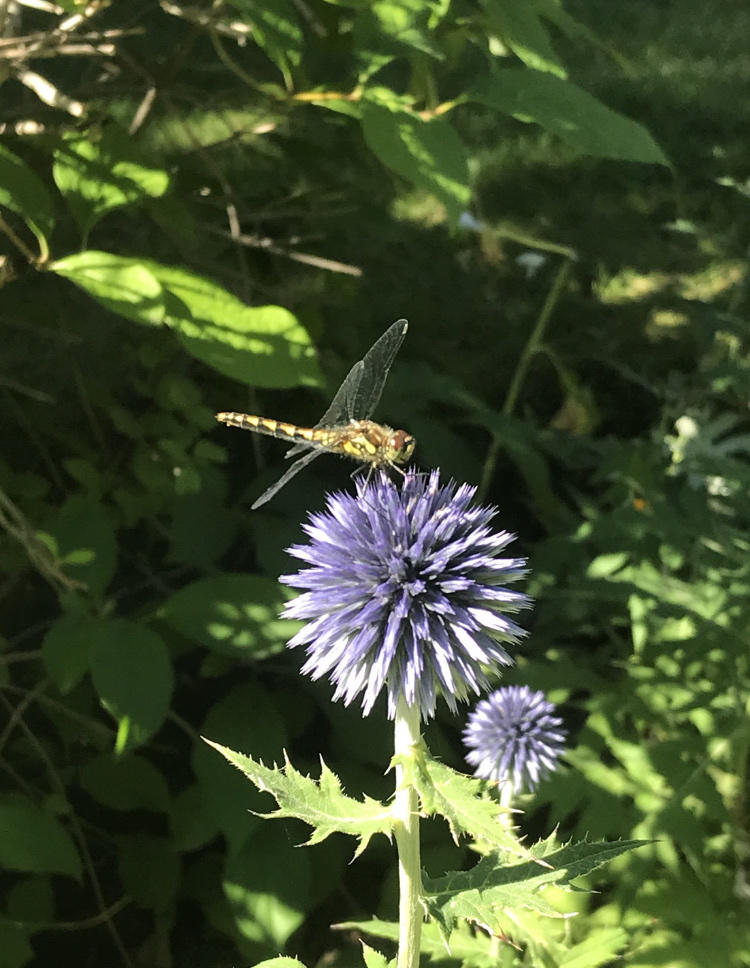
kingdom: Animalia
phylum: Arthropoda
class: Insecta
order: Odonata
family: Libellulidae
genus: Sympetrum
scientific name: Sympetrum danae
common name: Black darter
